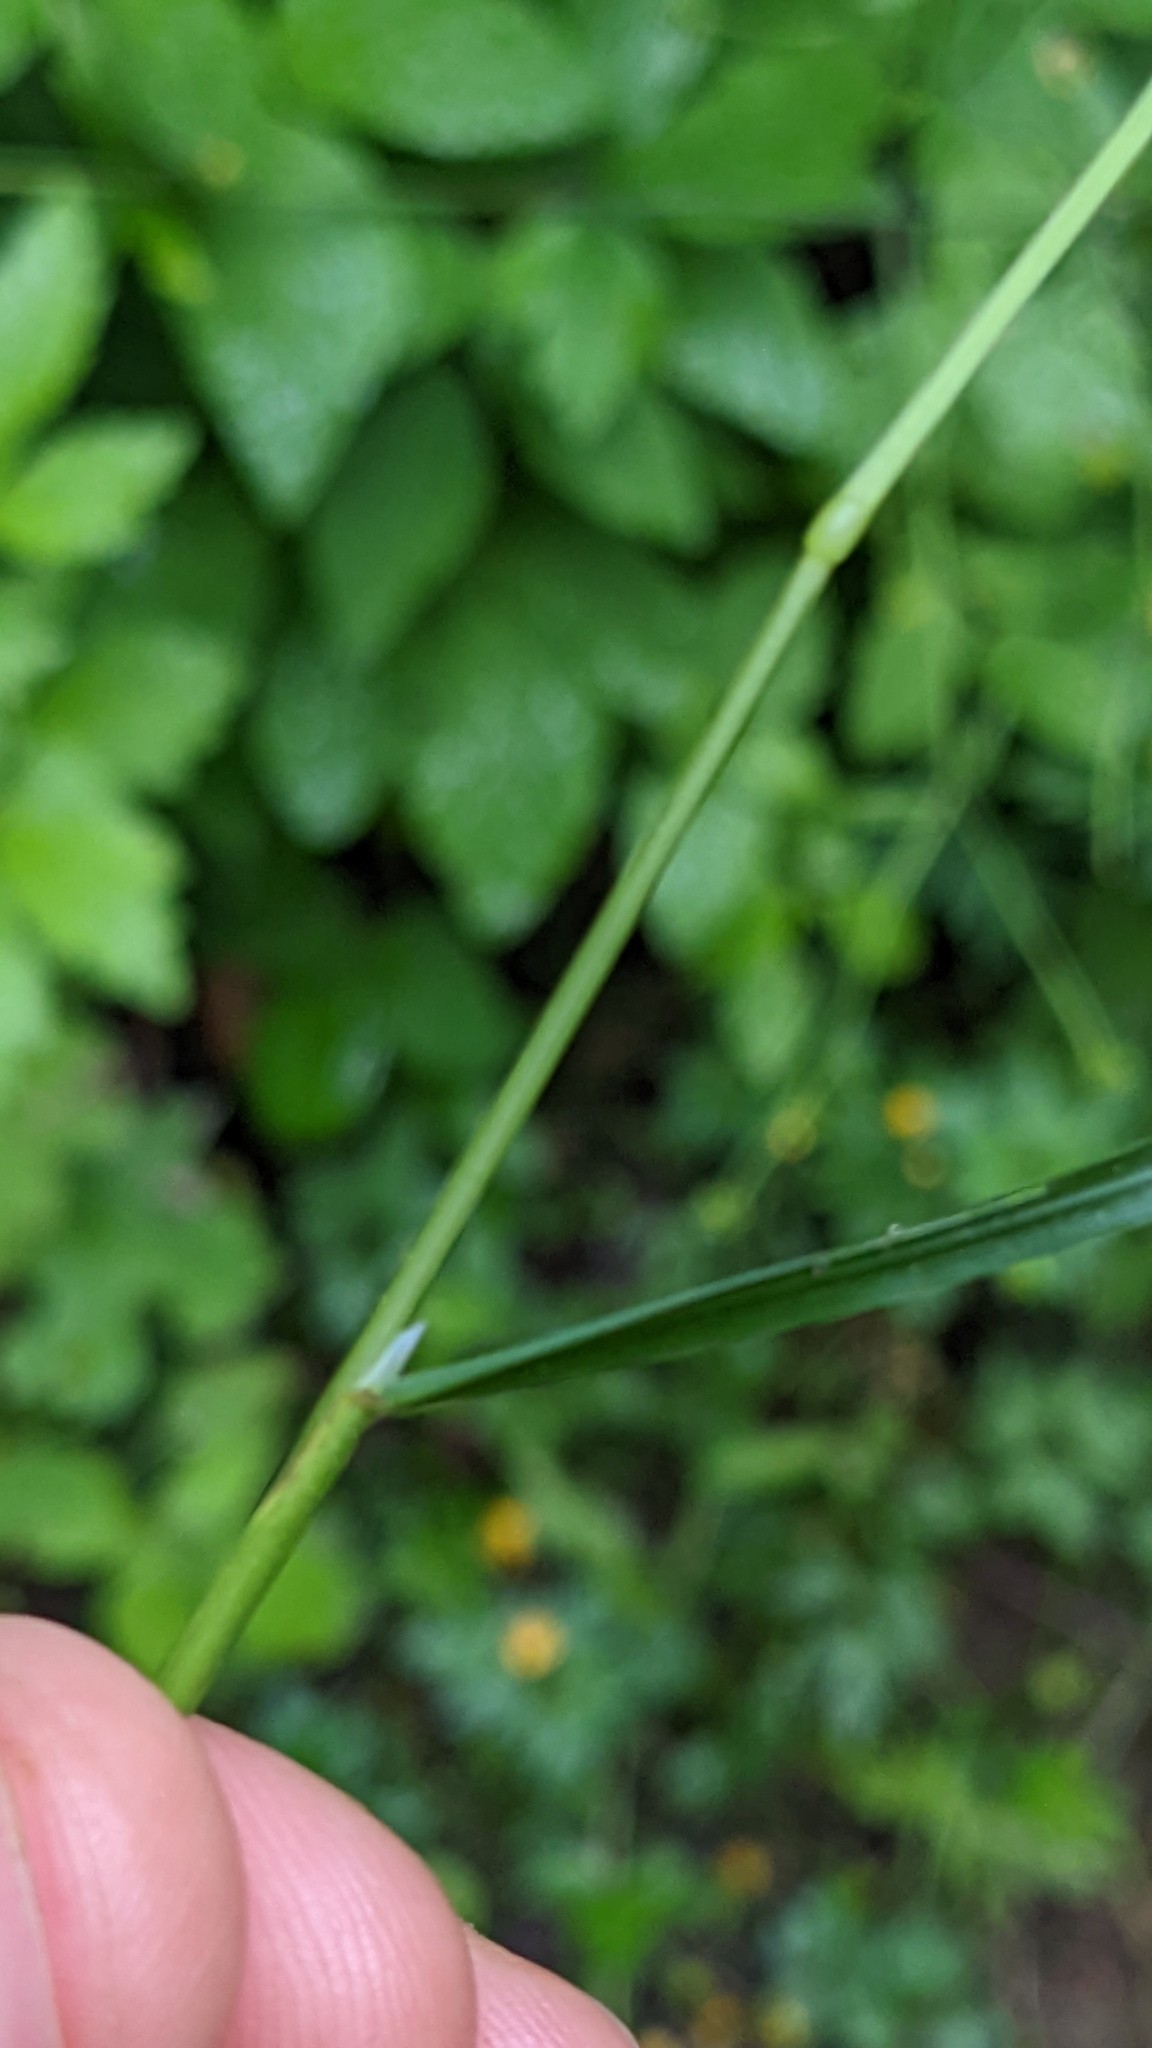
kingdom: Plantae
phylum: Tracheophyta
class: Liliopsida
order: Poales
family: Poaceae
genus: Poa
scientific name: Poa trivialis
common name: Rough bluegrass
